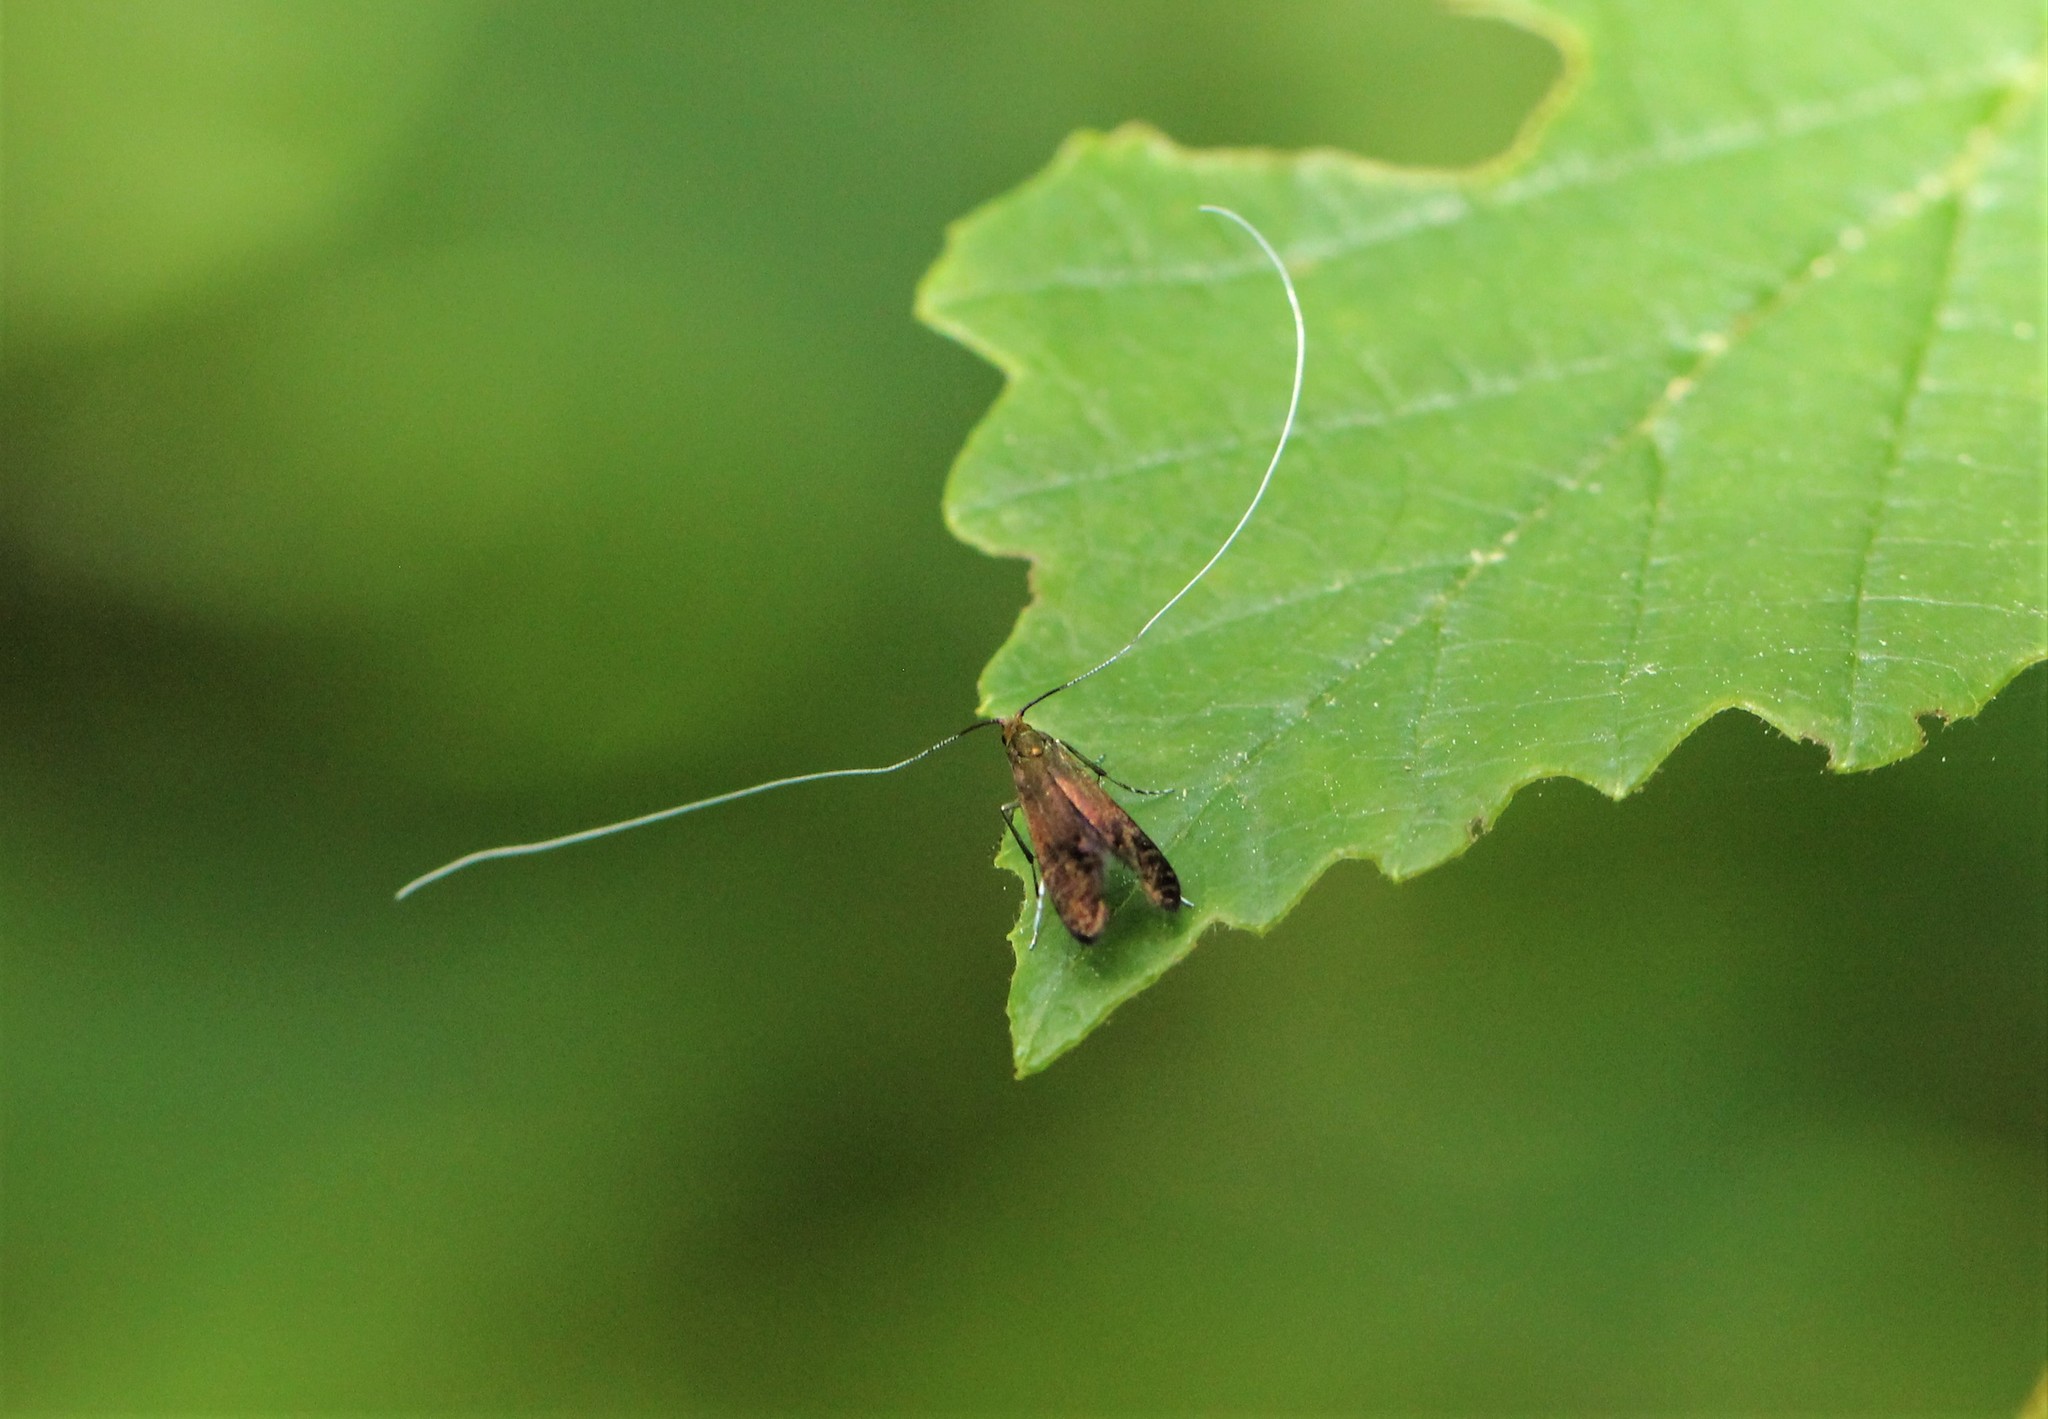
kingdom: Animalia
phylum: Arthropoda
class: Insecta
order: Lepidoptera
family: Adelidae
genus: Adela
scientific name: Adela caeruleella
